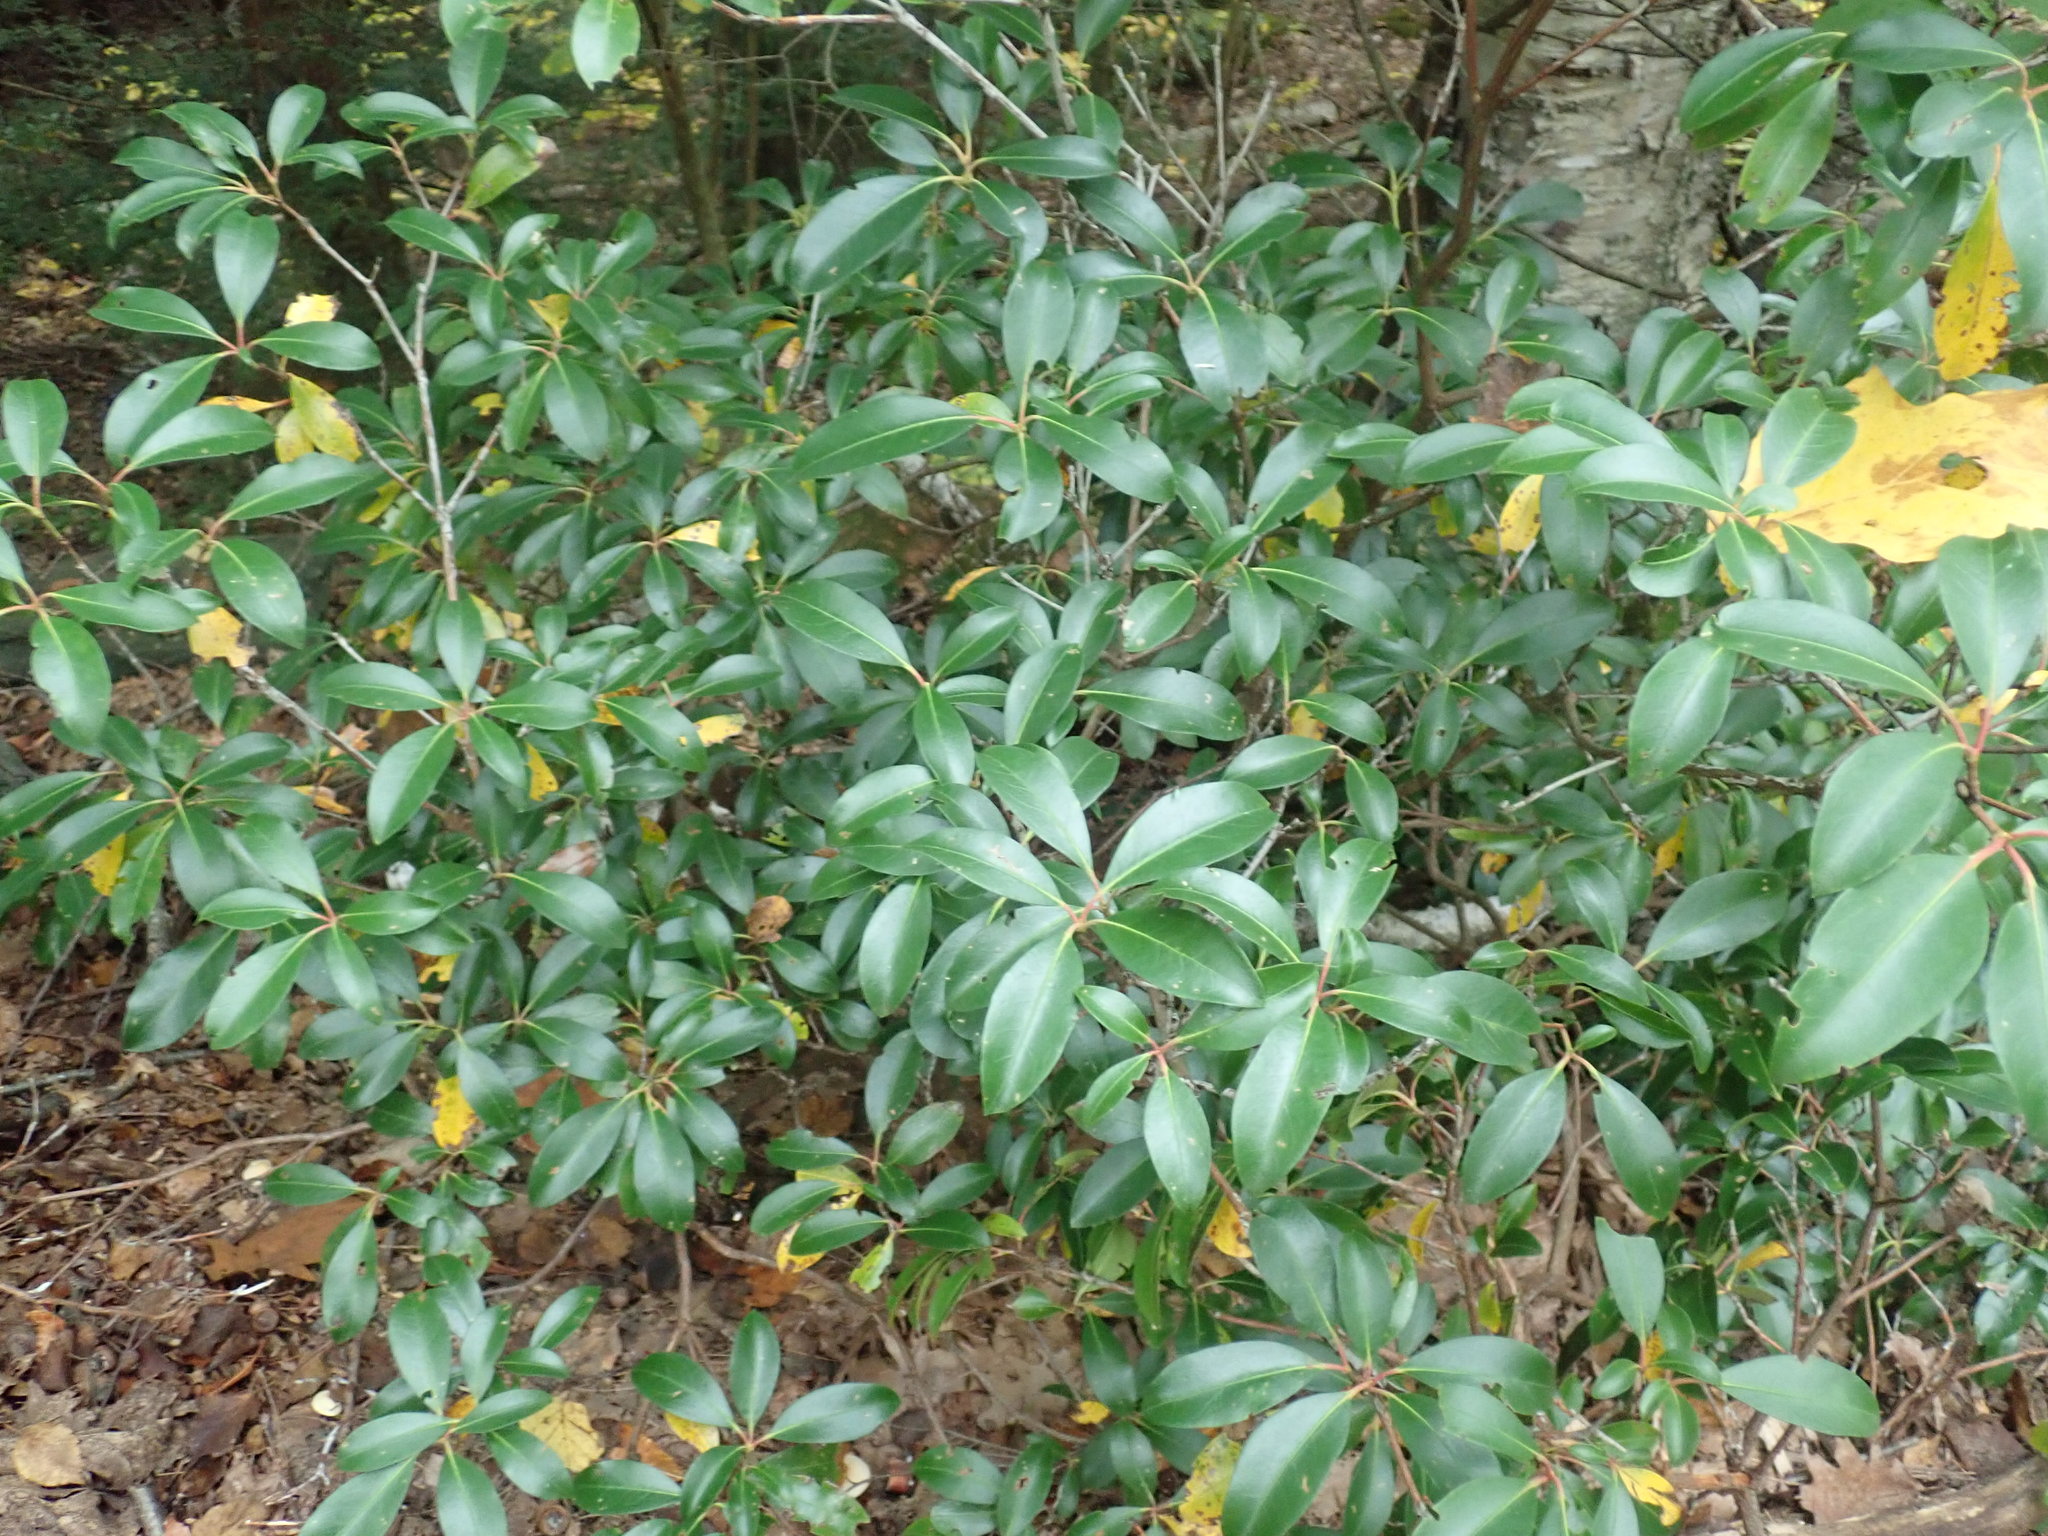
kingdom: Plantae
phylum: Tracheophyta
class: Magnoliopsida
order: Ericales
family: Ericaceae
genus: Kalmia
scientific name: Kalmia latifolia
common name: Mountain-laurel
